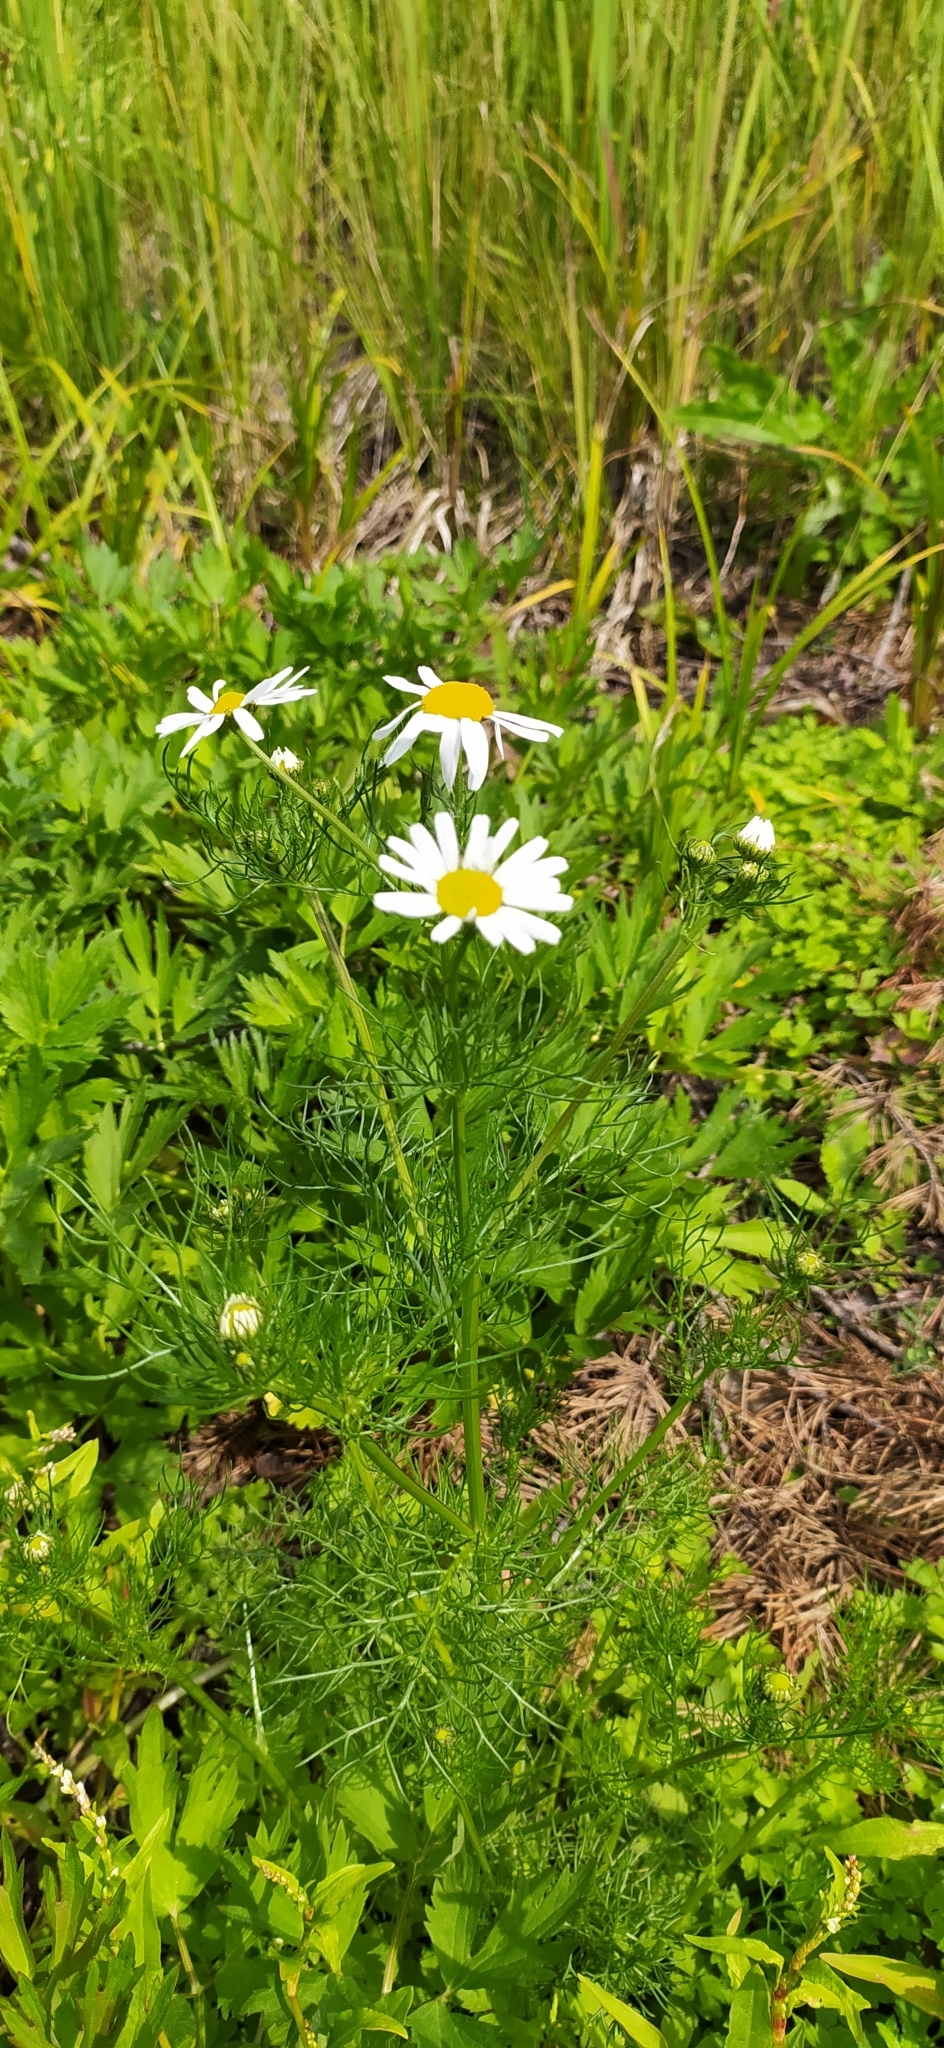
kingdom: Plantae
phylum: Tracheophyta
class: Magnoliopsida
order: Asterales
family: Asteraceae
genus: Tripleurospermum
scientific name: Tripleurospermum inodorum
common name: Scentless mayweed
